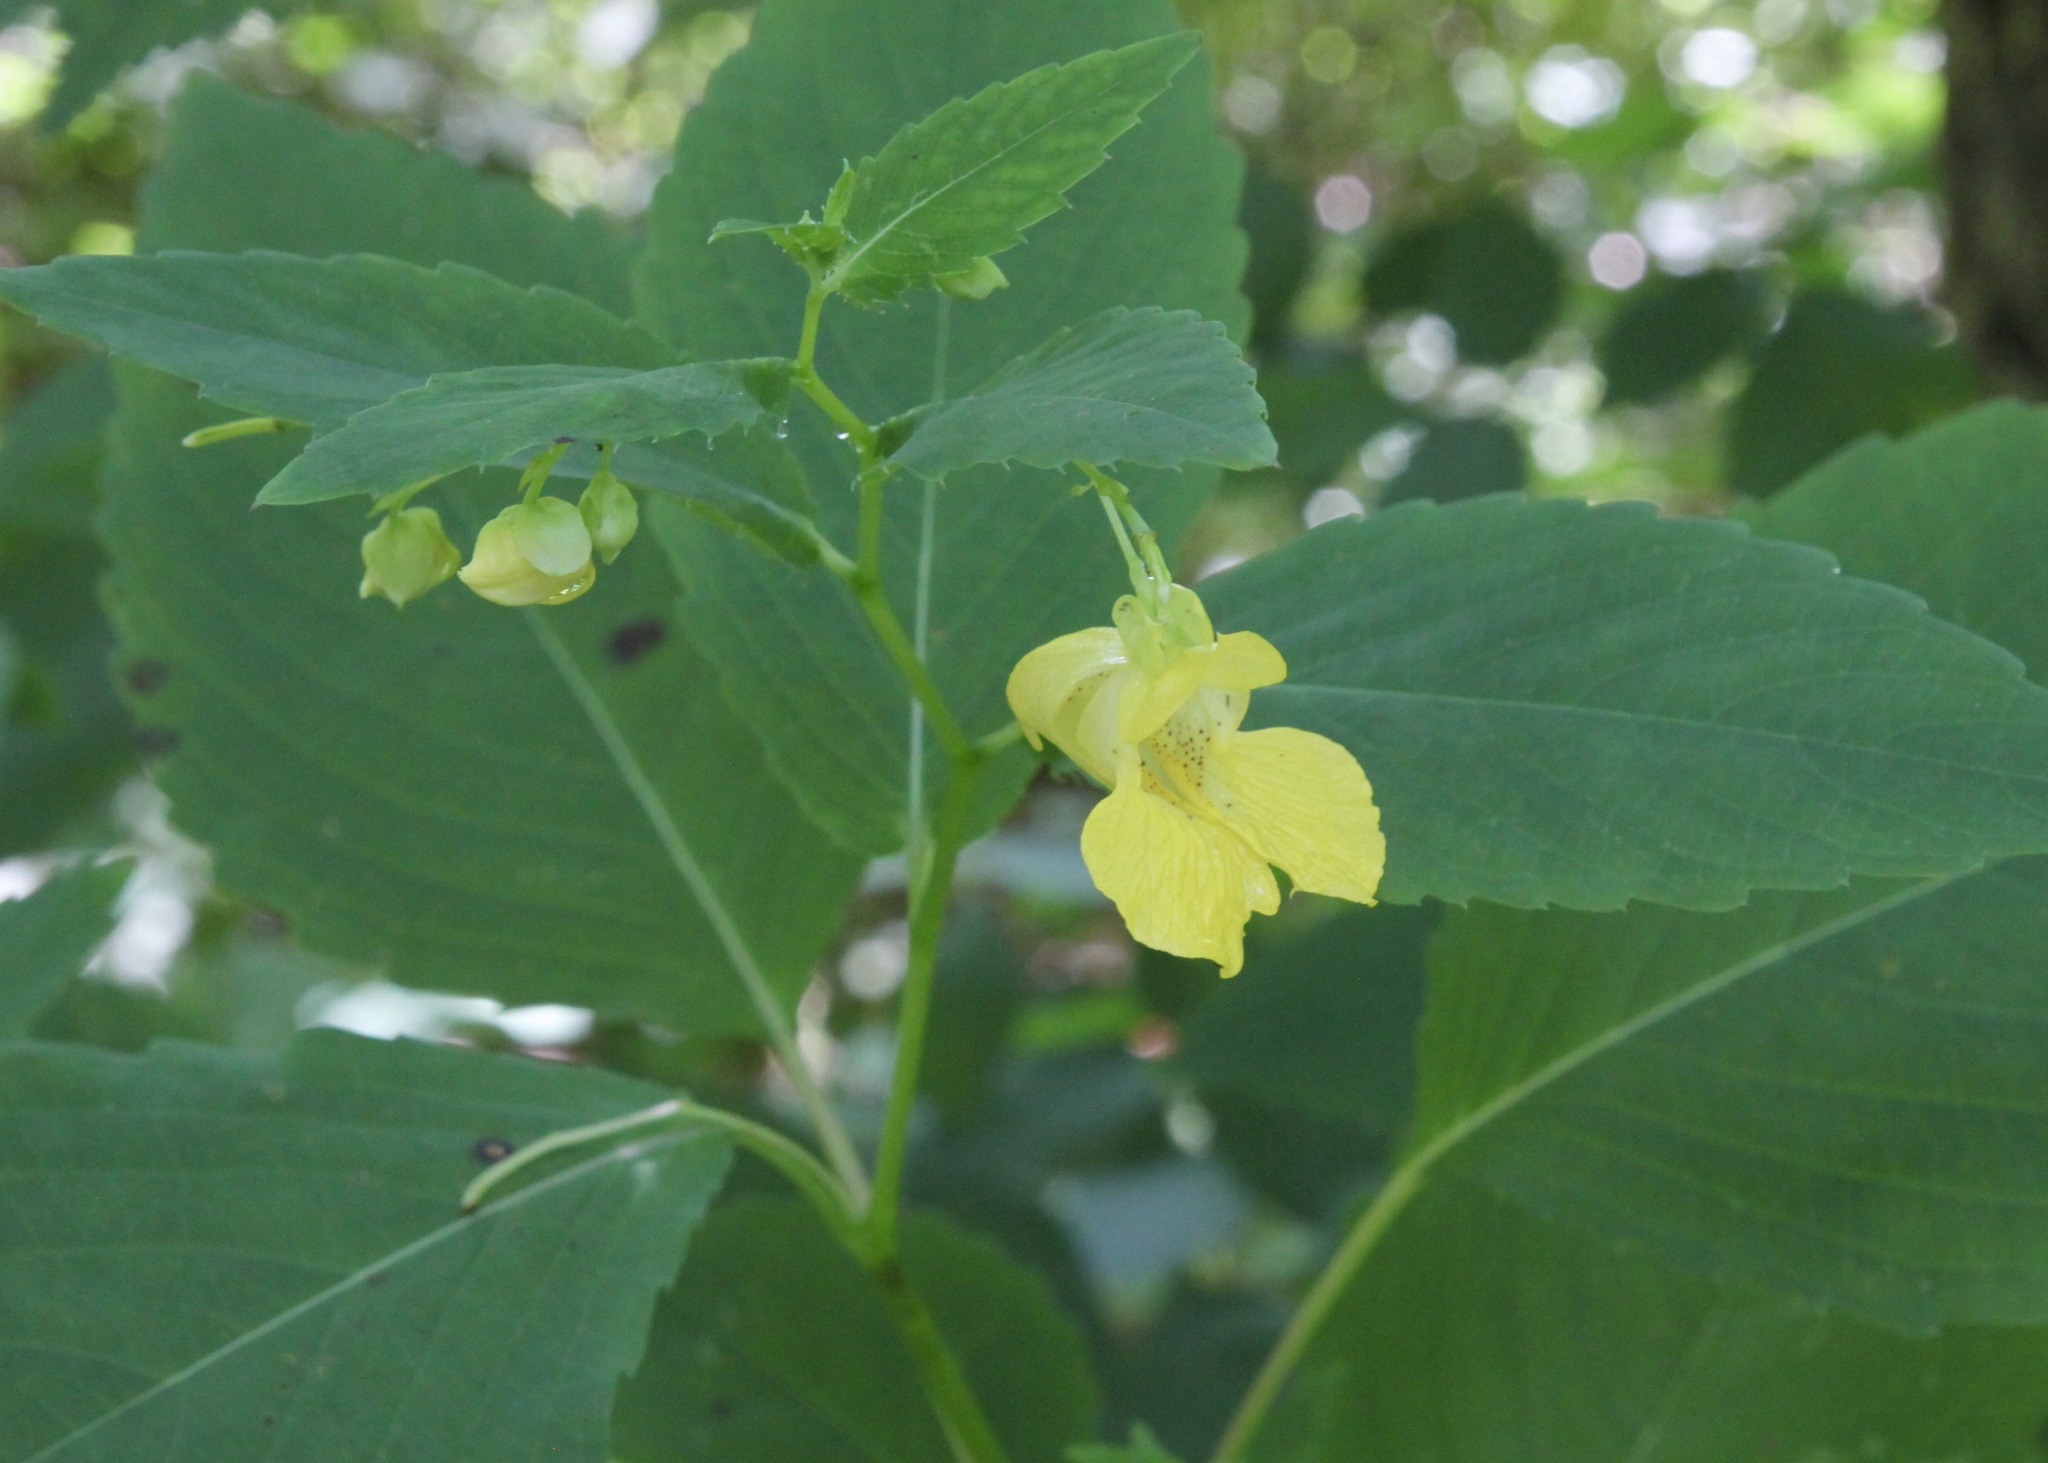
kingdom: Plantae
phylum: Tracheophyta
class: Magnoliopsida
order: Ericales
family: Balsaminaceae
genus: Impatiens
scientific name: Impatiens pallida
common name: Pale snapweed
